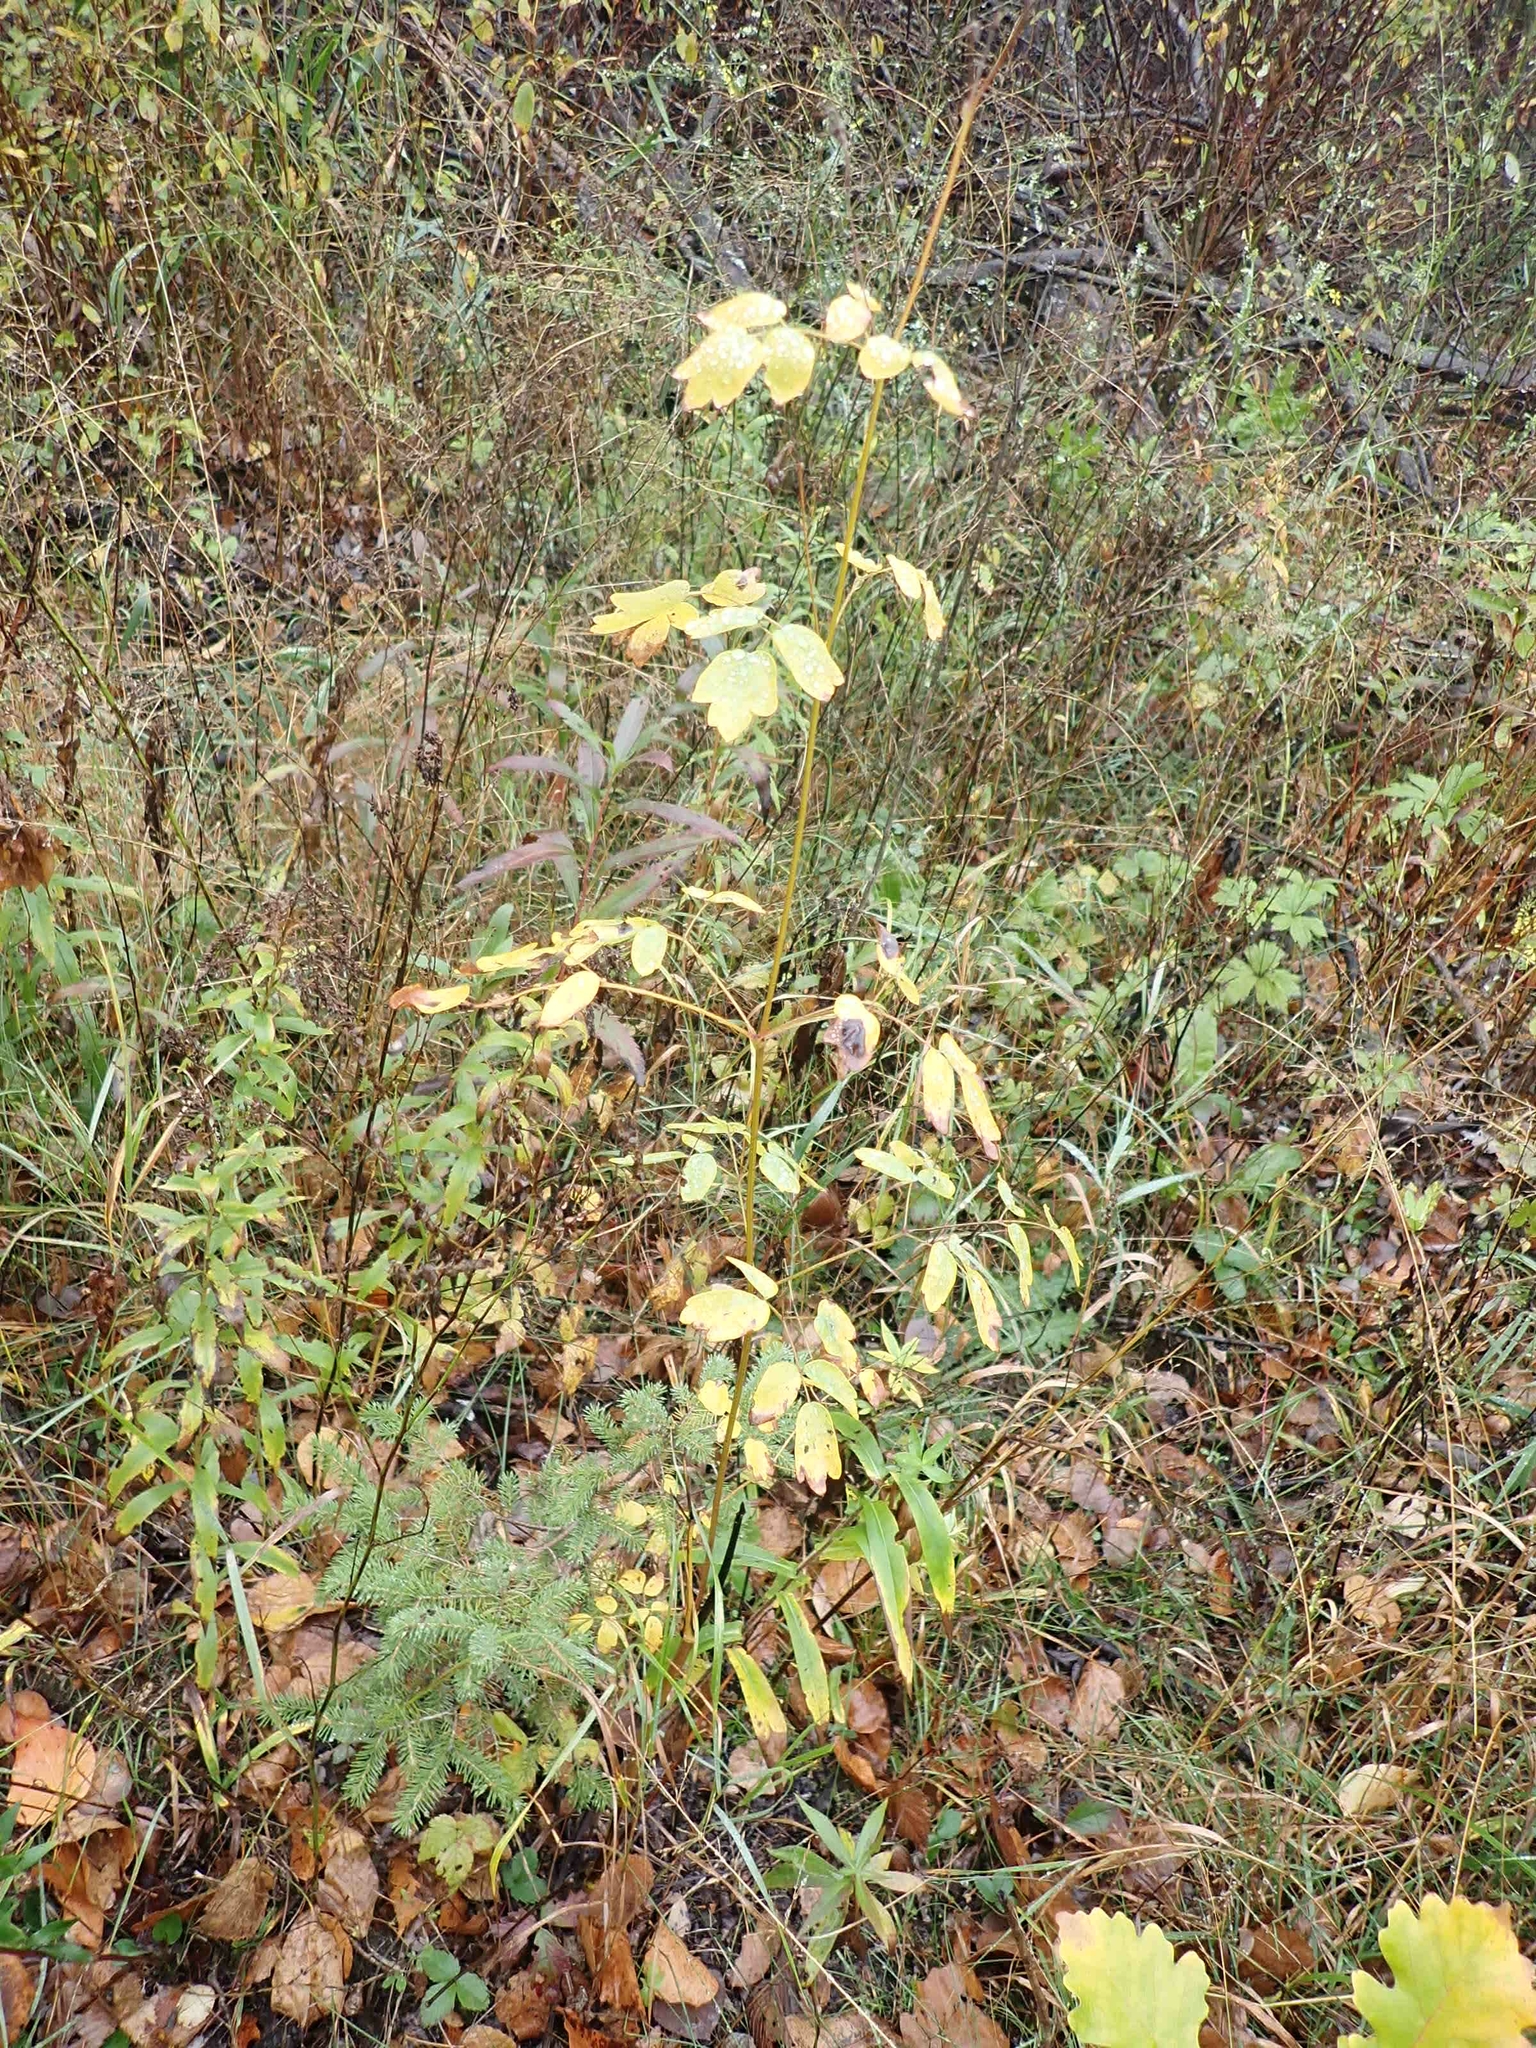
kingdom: Plantae
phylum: Tracheophyta
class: Magnoliopsida
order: Ranunculales
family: Ranunculaceae
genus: Thalictrum
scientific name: Thalictrum dasycarpum
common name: Purple meadow-rue
